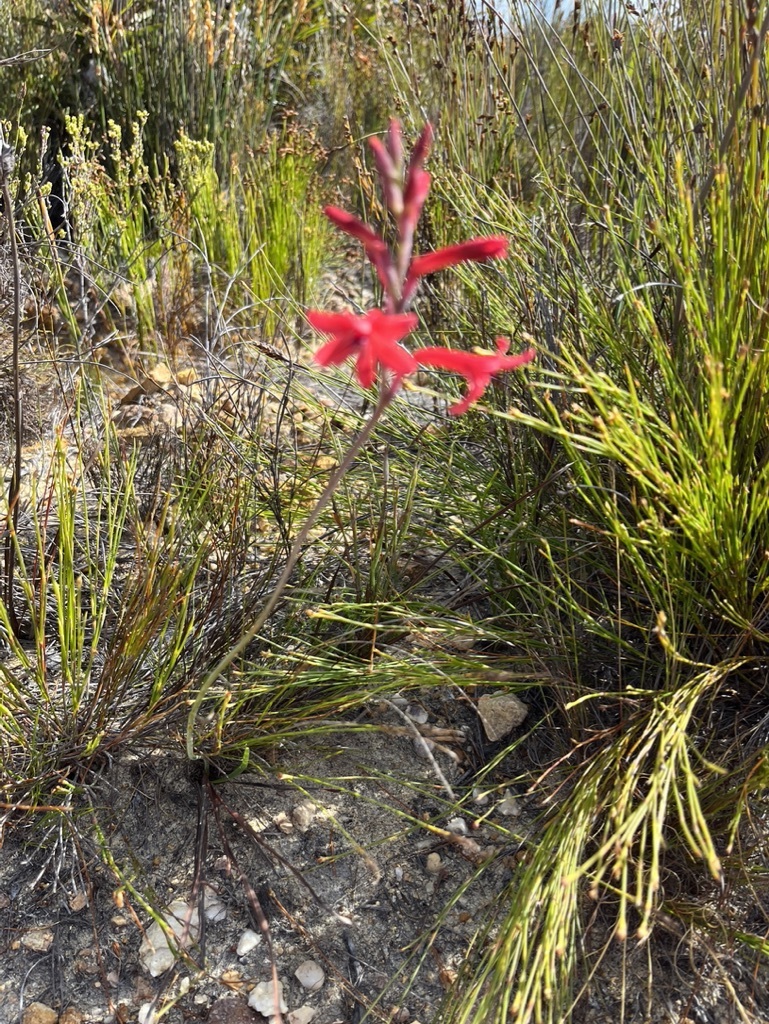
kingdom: Plantae
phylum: Tracheophyta
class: Liliopsida
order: Asparagales
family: Iridaceae
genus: Tritoniopsis
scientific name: Tritoniopsis pulchra
